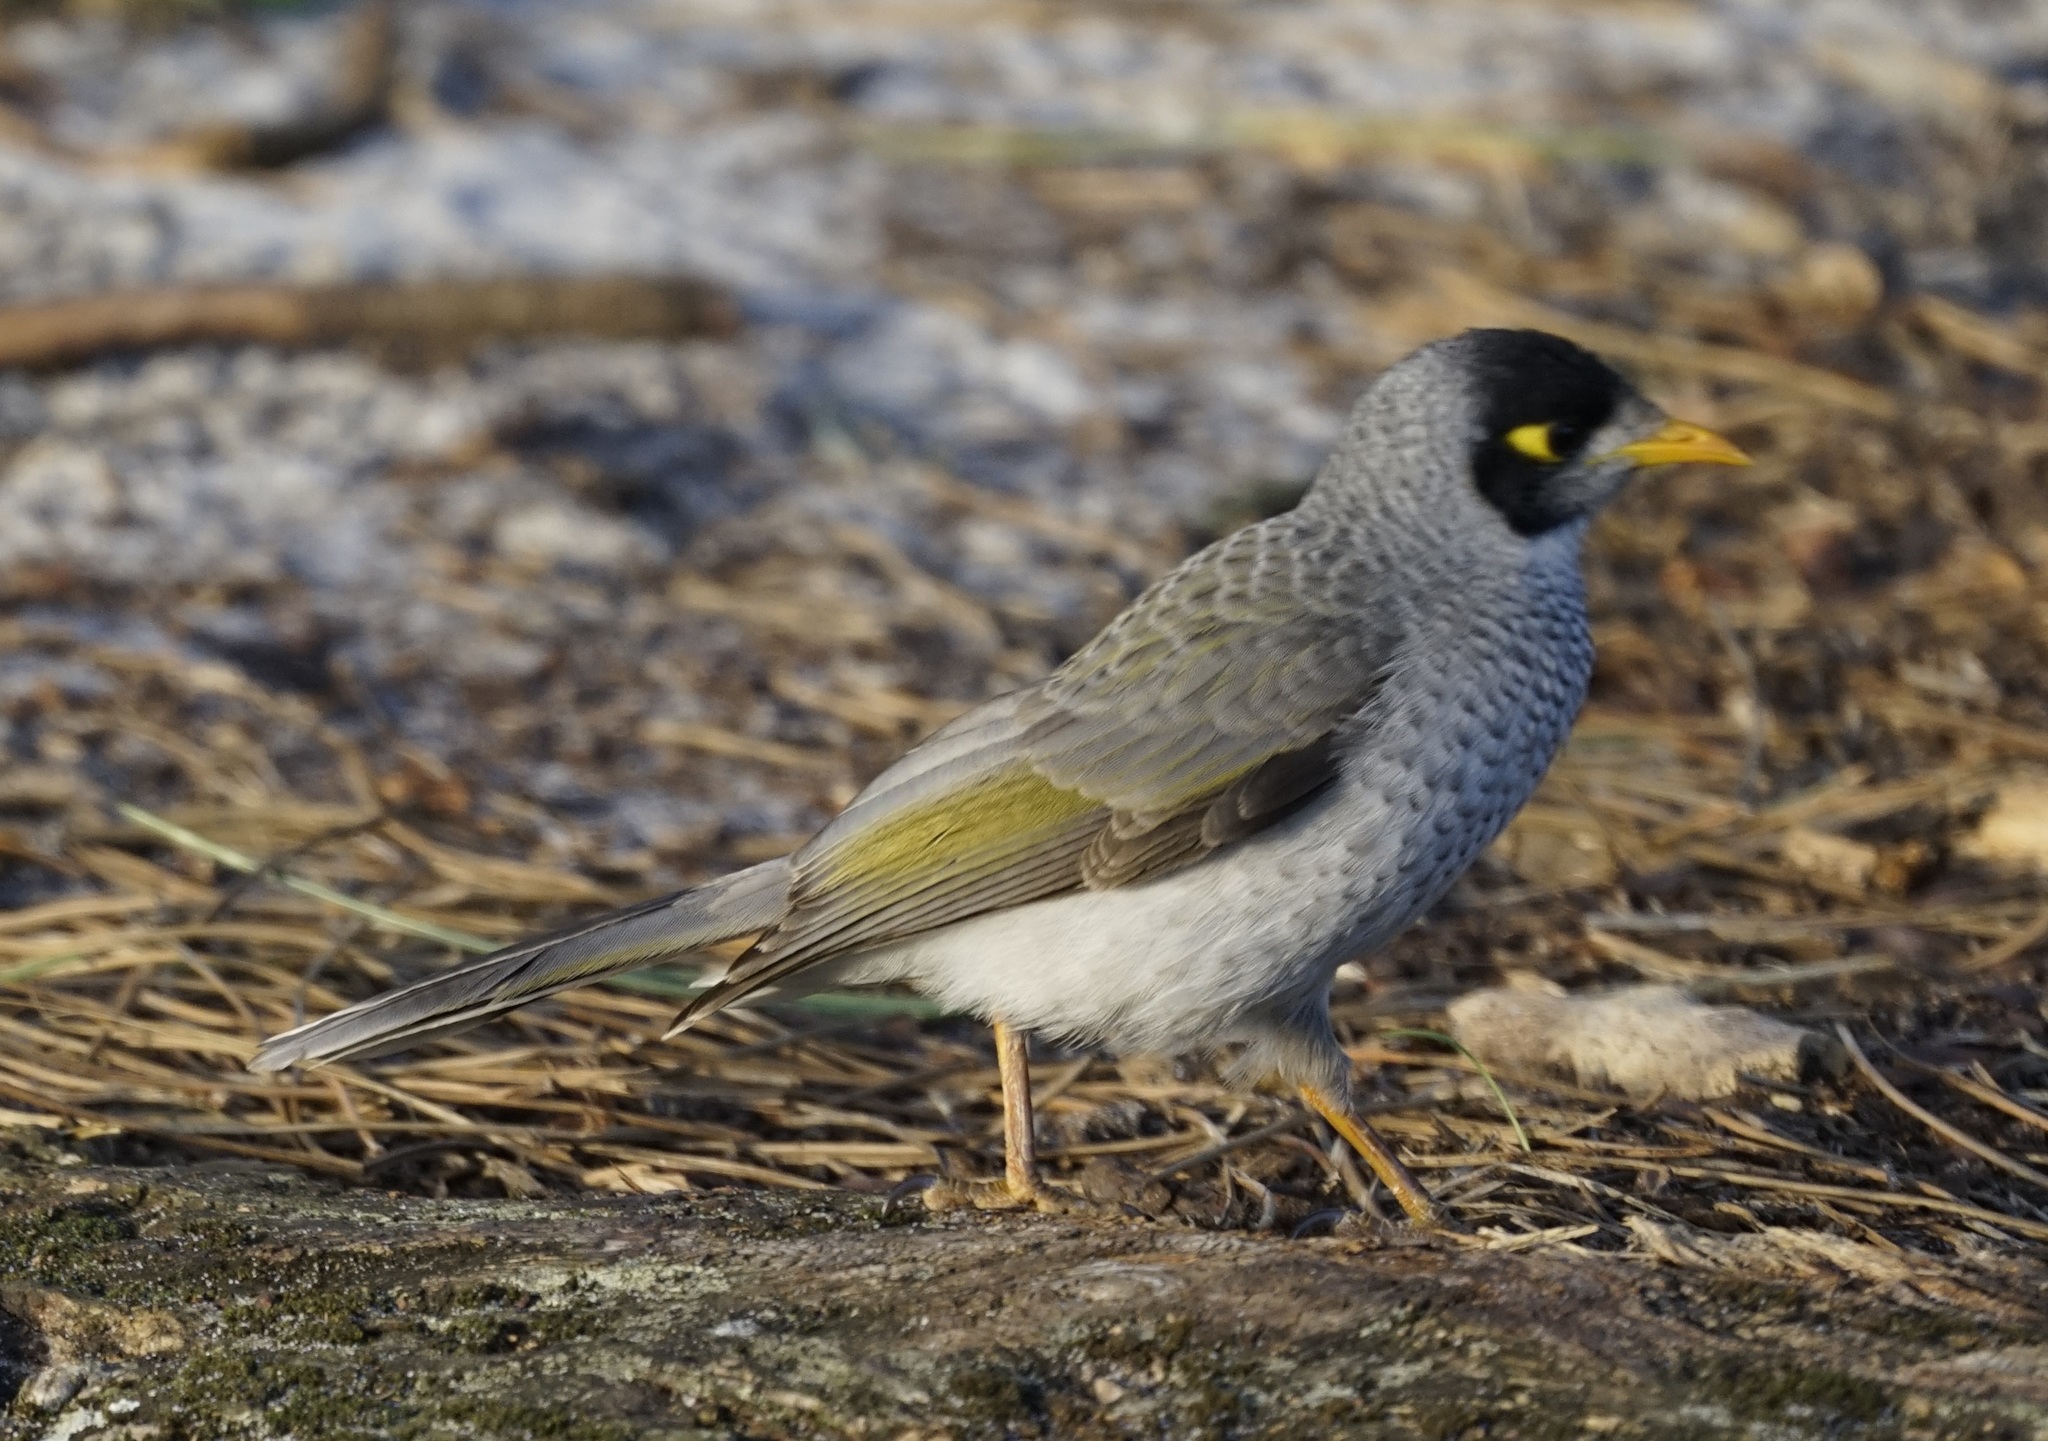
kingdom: Animalia
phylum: Chordata
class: Aves
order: Passeriformes
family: Meliphagidae
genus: Manorina
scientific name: Manorina melanocephala
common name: Noisy miner
